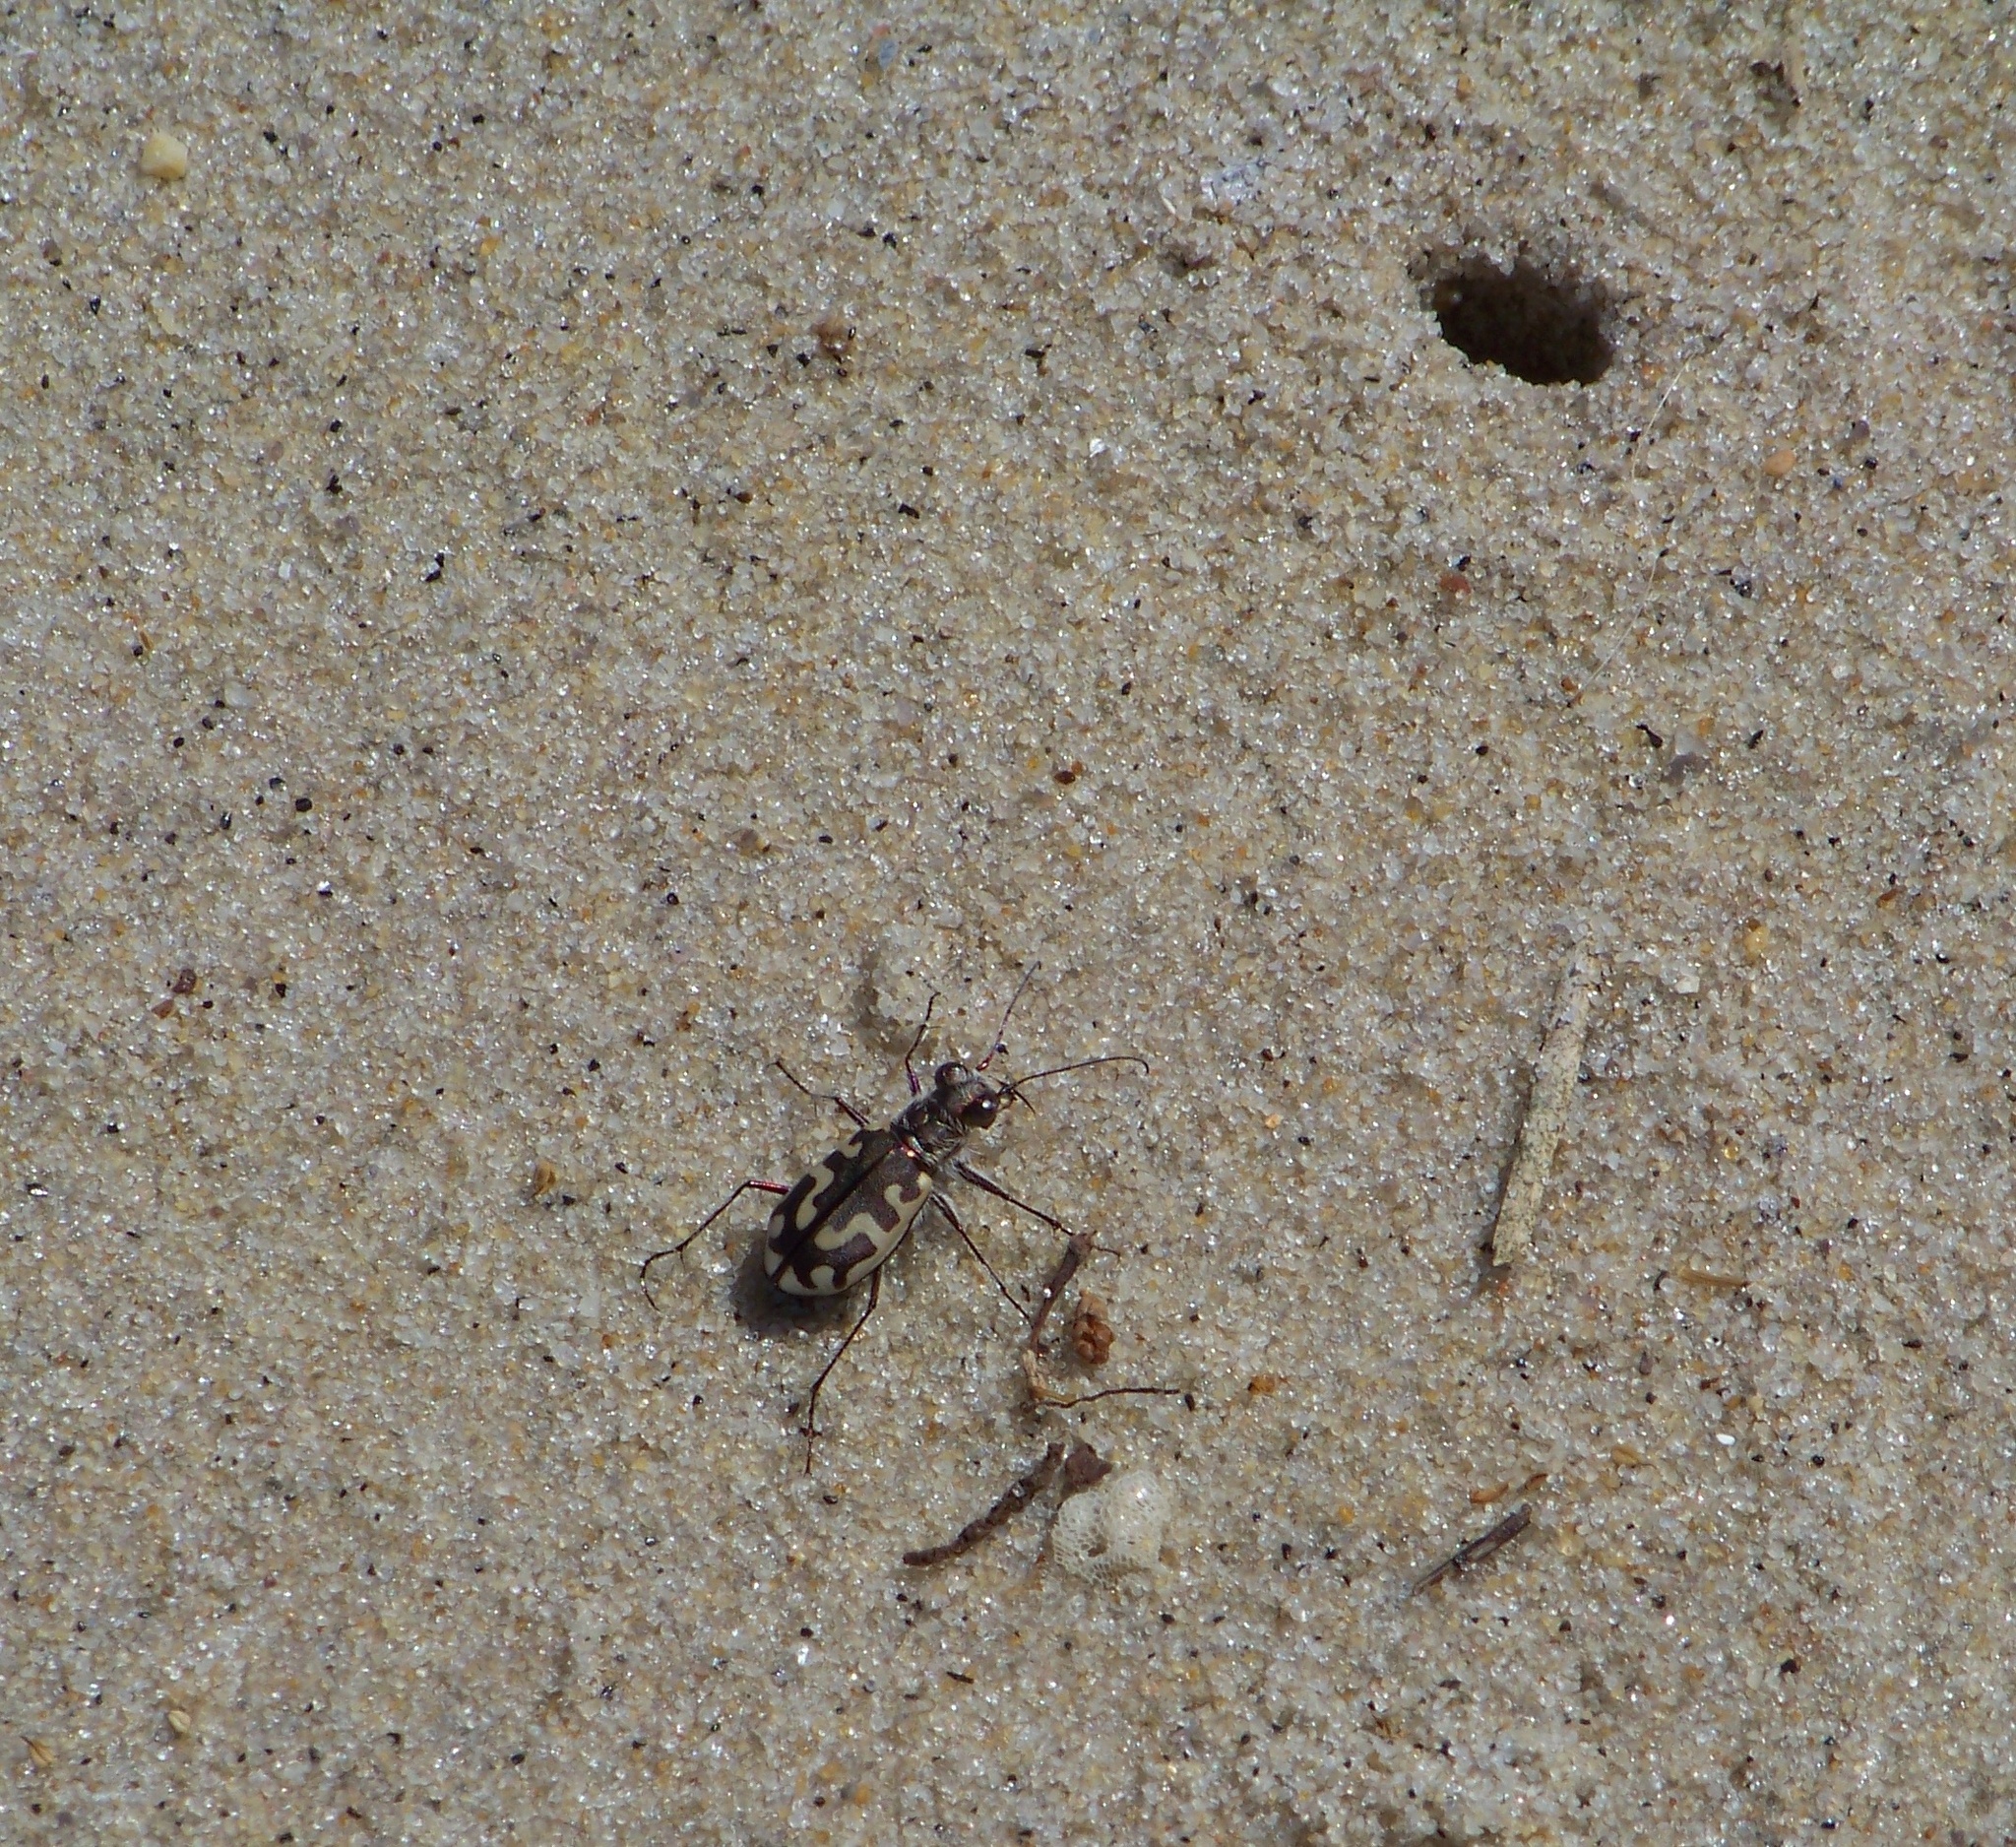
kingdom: Animalia
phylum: Arthropoda
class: Insecta
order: Coleoptera
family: Carabidae
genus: Cicindela
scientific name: Cicindela hirticollis
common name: Hairy-necked tiger beetle
